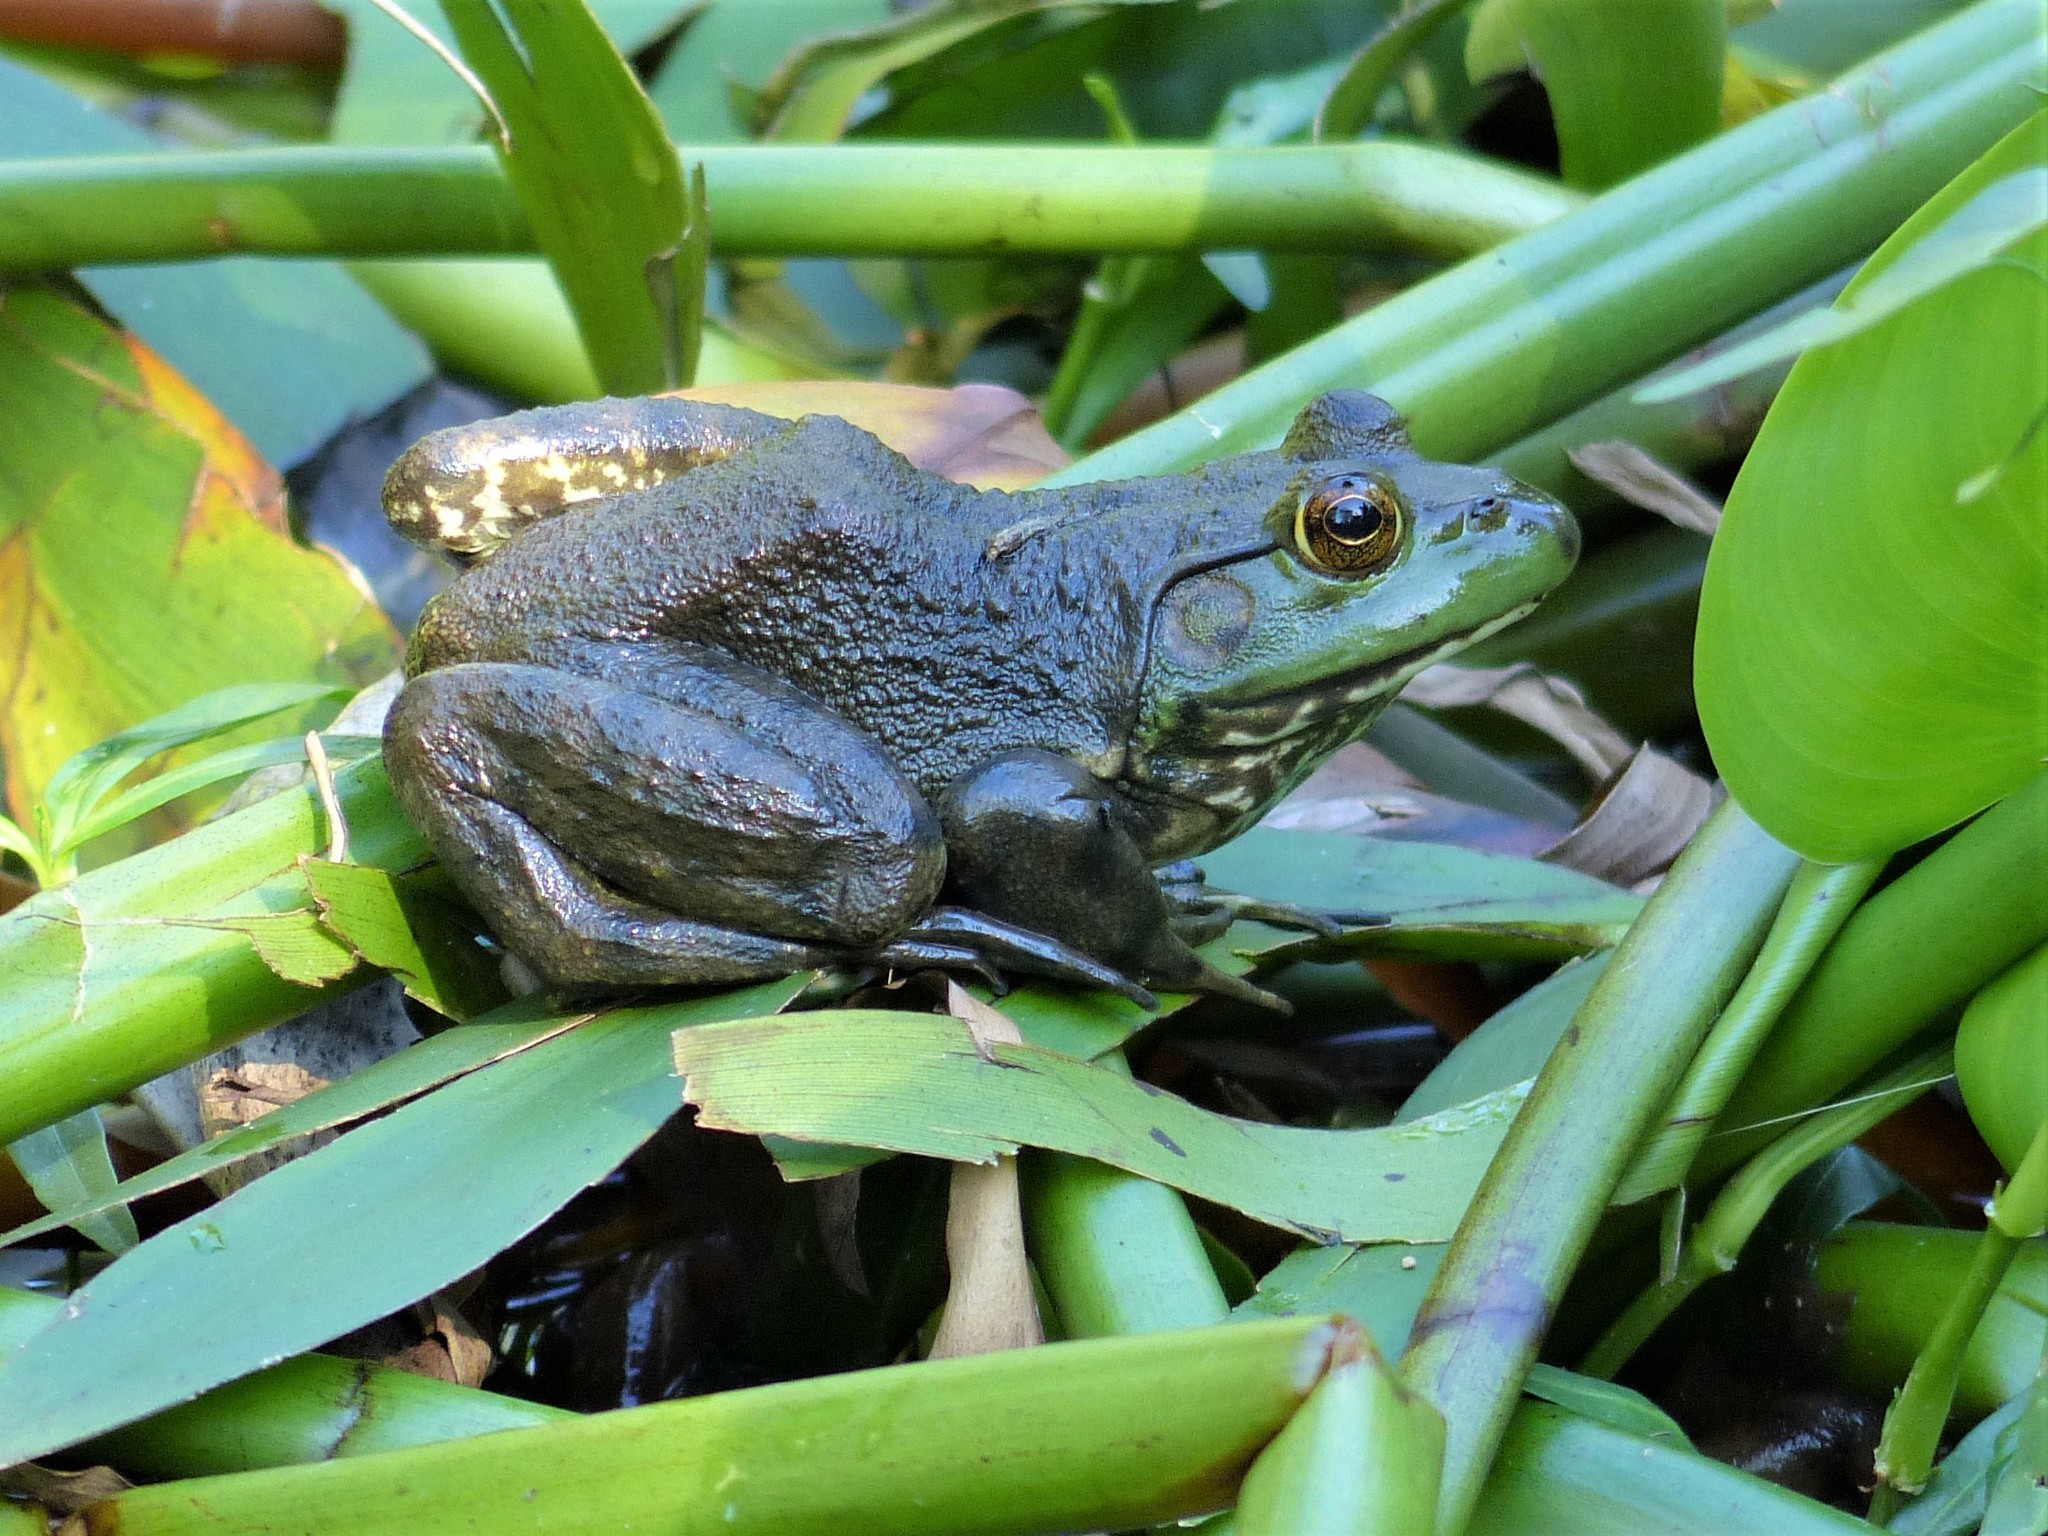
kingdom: Animalia
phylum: Chordata
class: Amphibia
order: Anura
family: Ranidae
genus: Lithobates
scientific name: Lithobates catesbeianus
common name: American bullfrog
